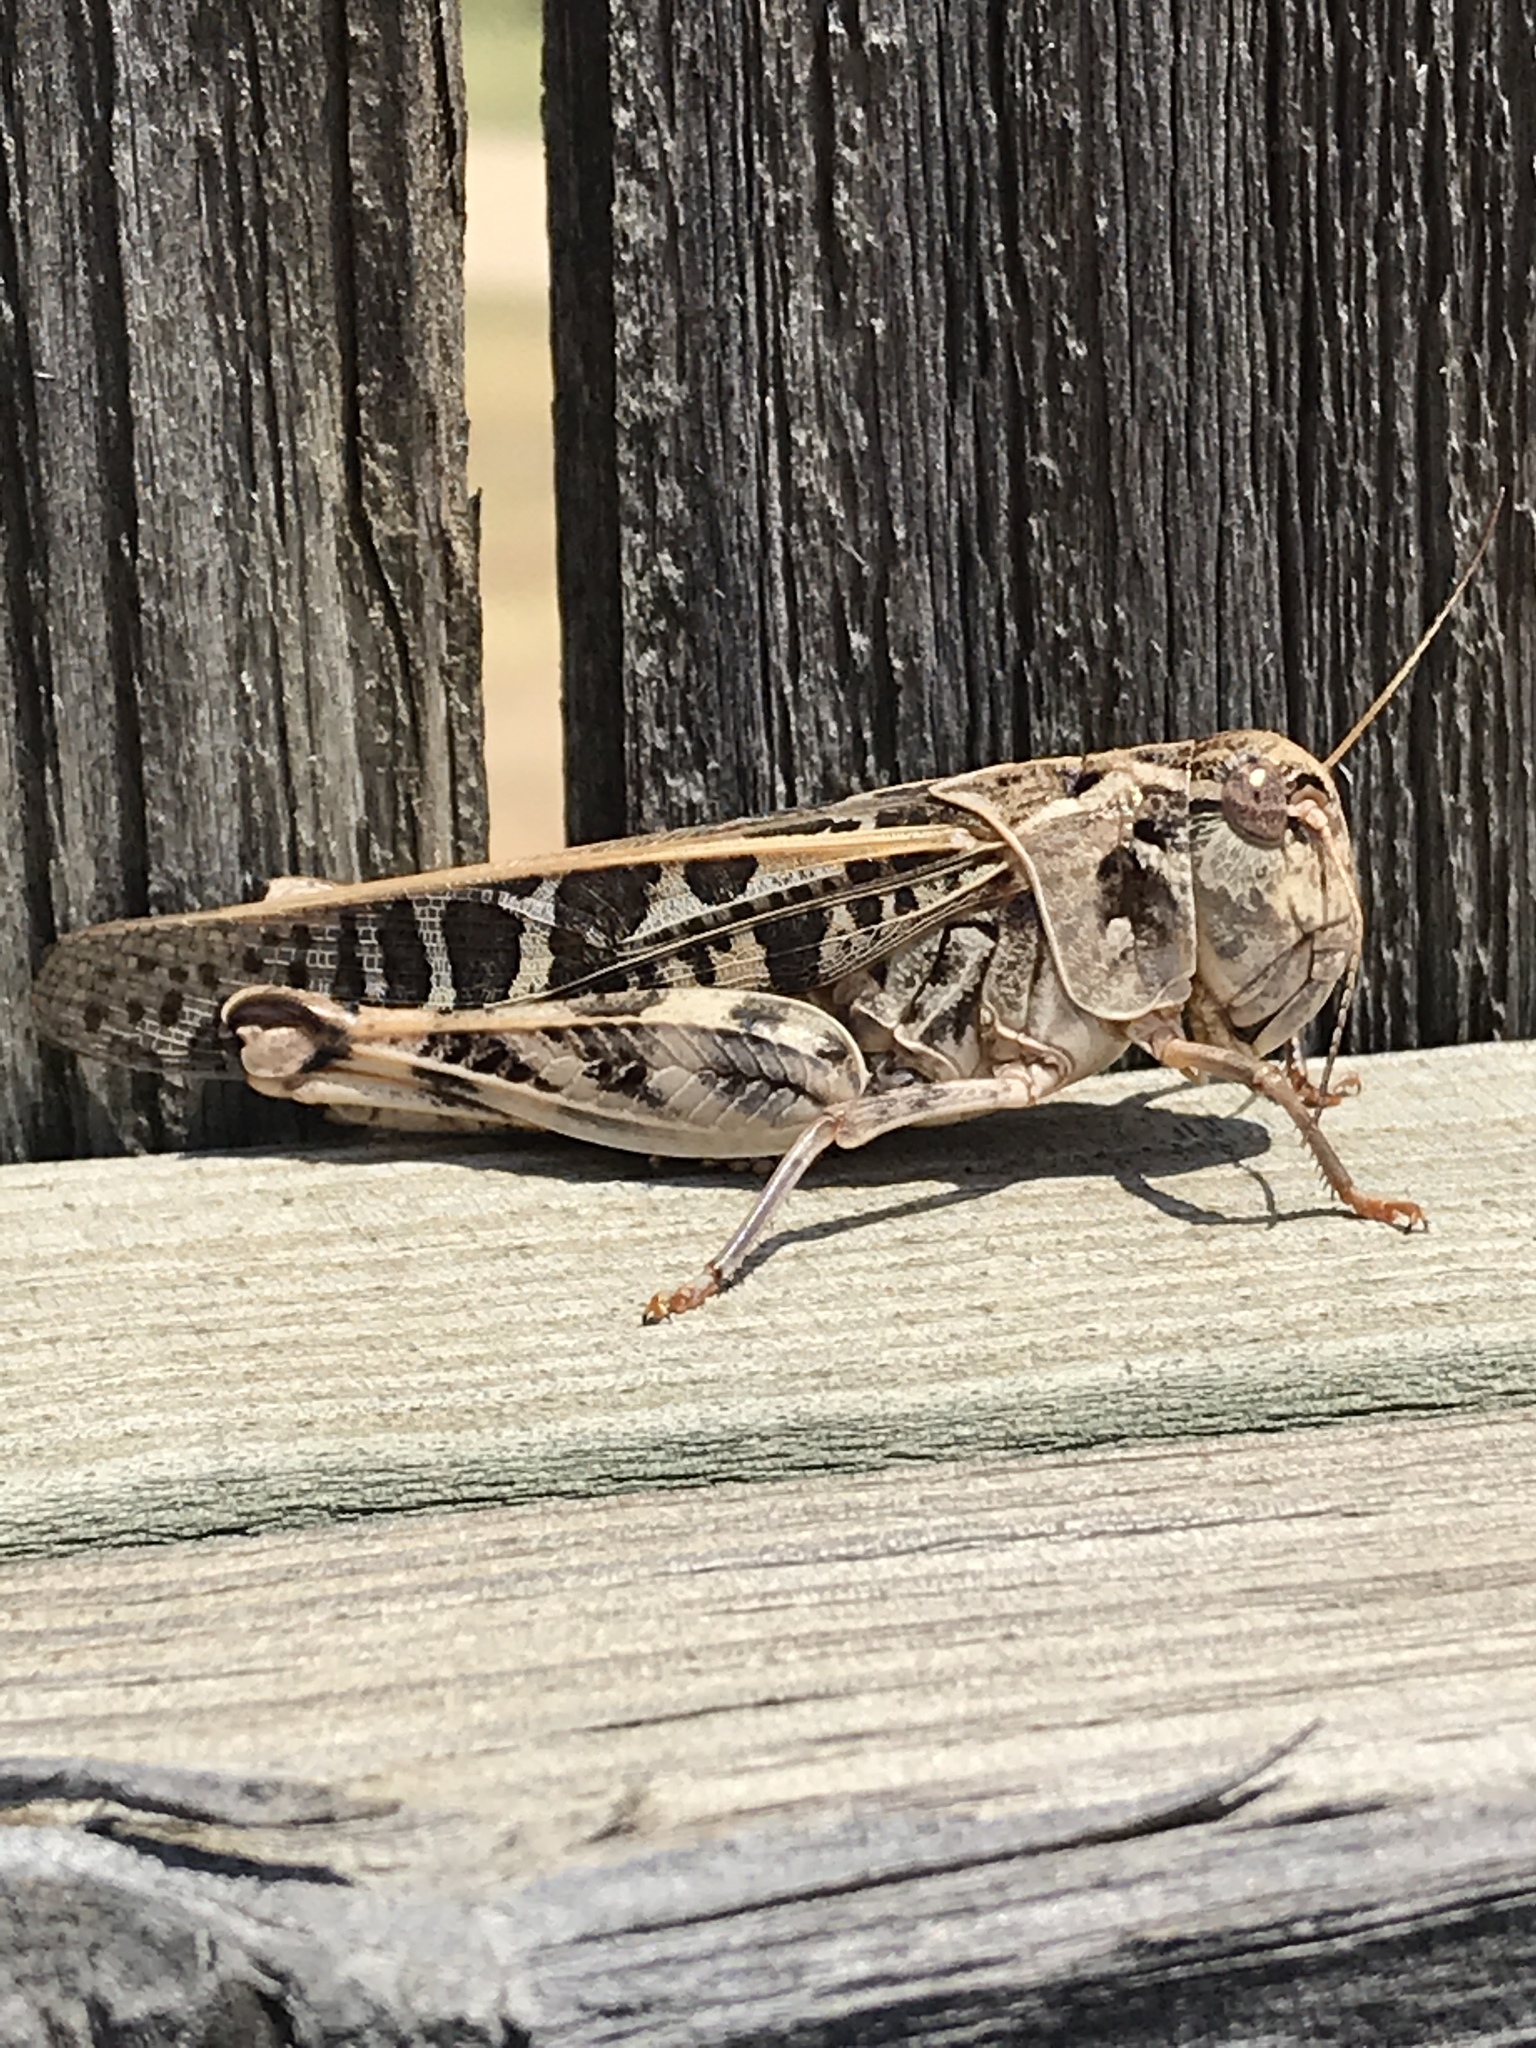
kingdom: Animalia
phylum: Arthropoda
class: Insecta
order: Orthoptera
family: Acrididae
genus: Hippiscus
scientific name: Hippiscus ocelote
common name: Wrinkled grasshopper
